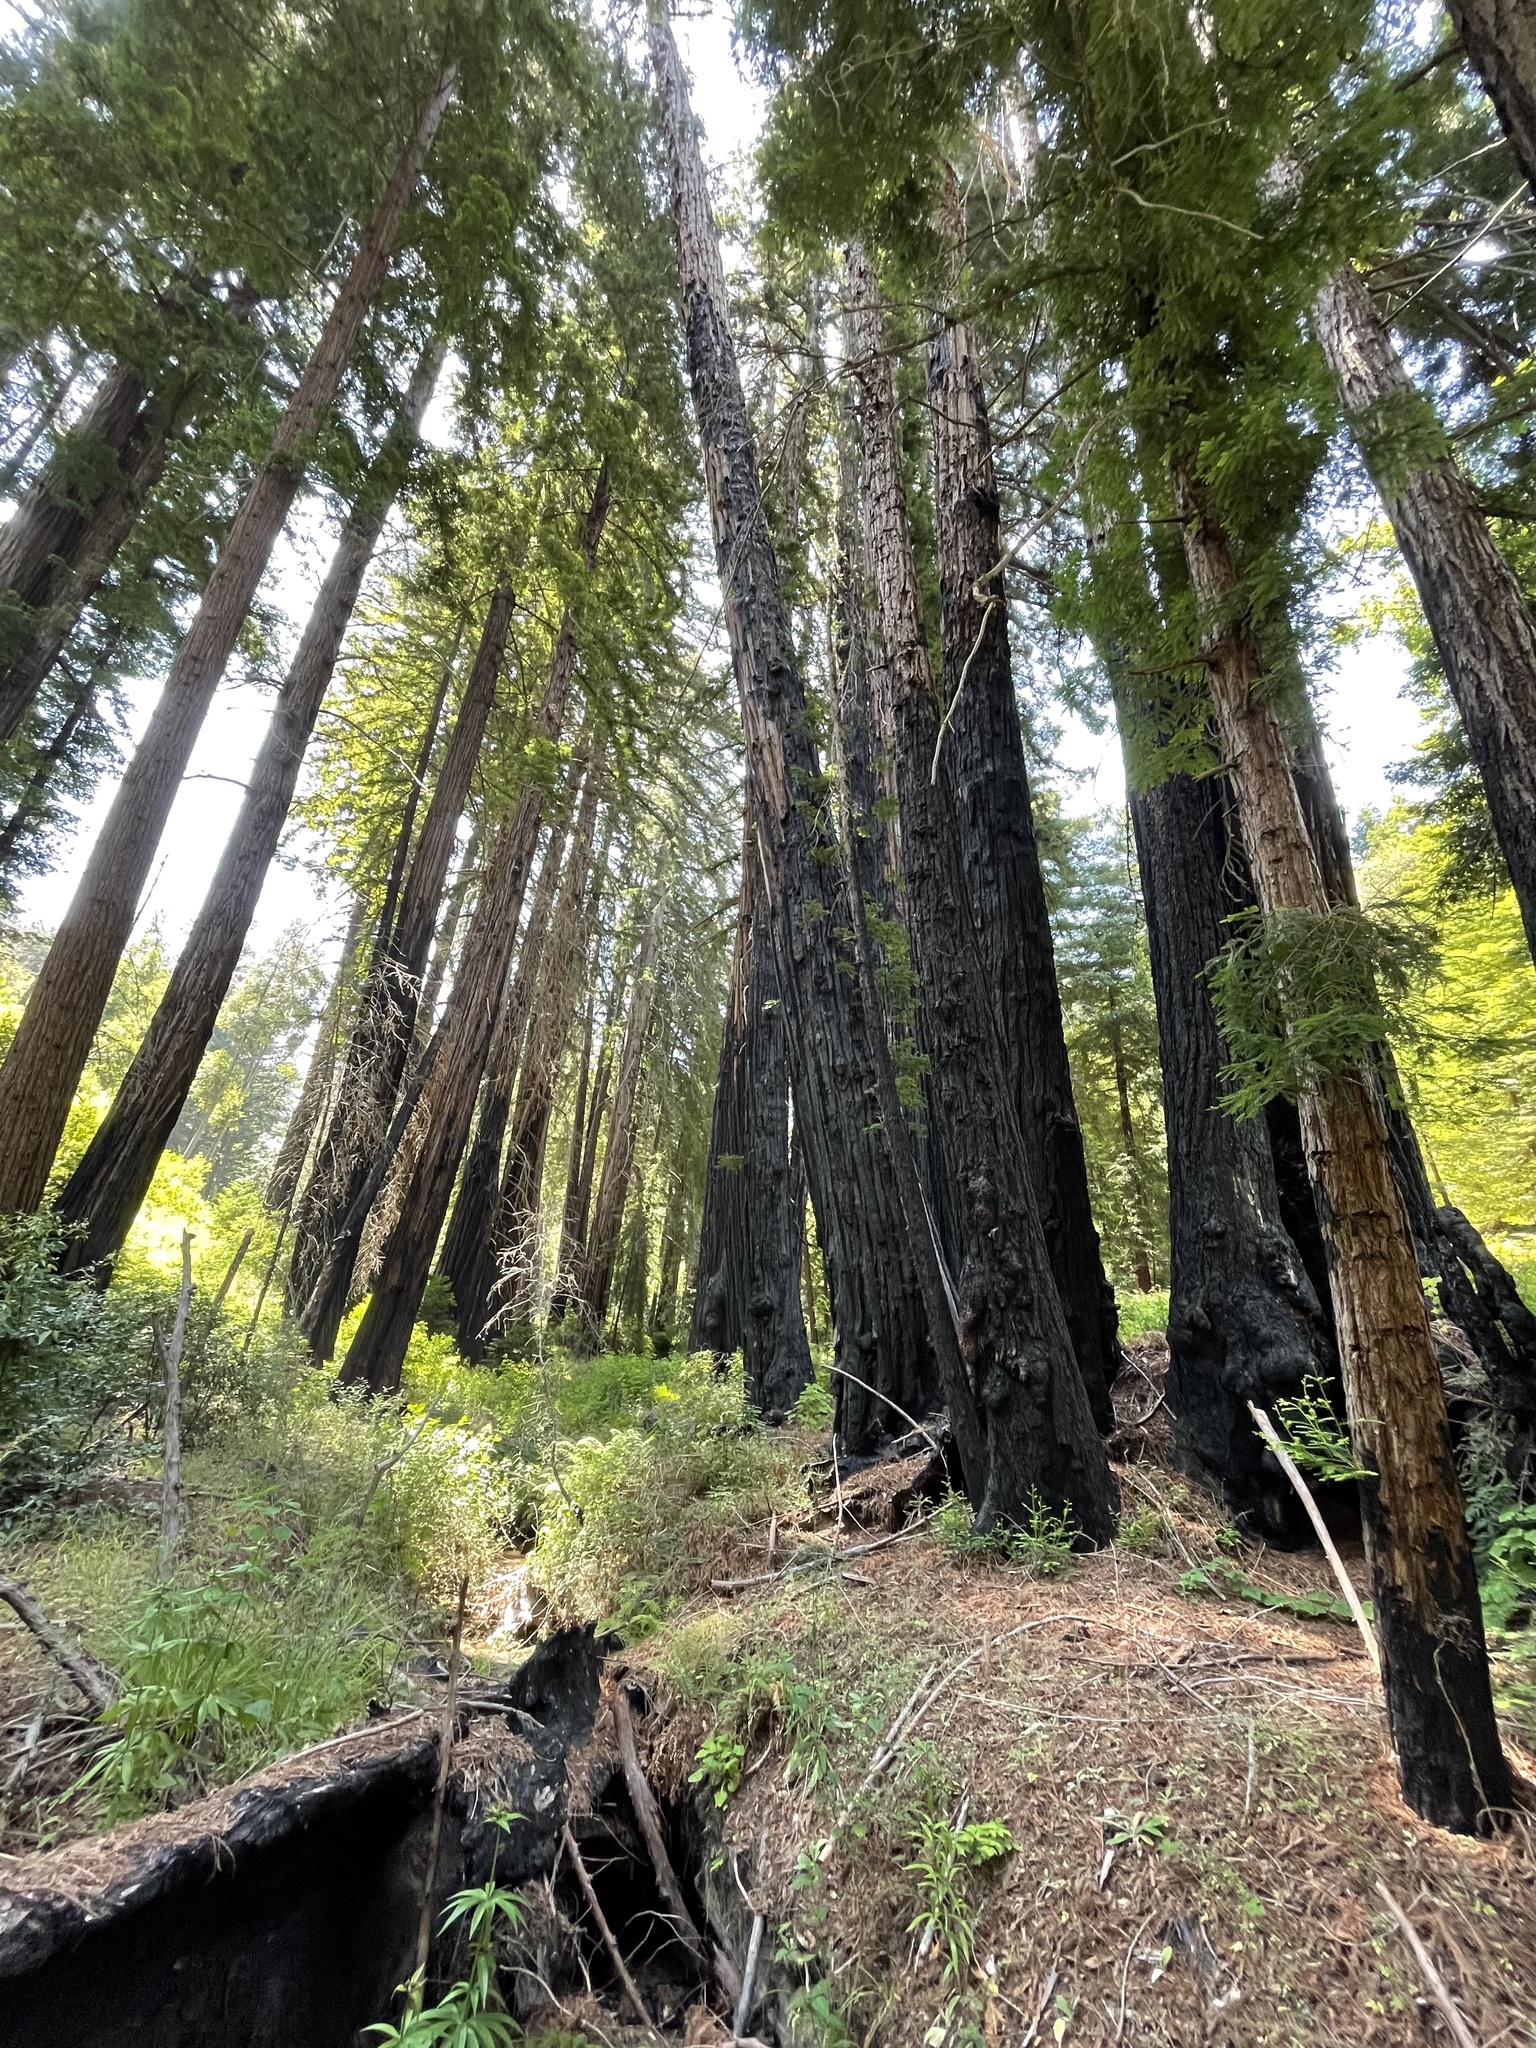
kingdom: Plantae
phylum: Tracheophyta
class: Liliopsida
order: Liliales
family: Liliaceae
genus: Lilium
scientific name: Lilium pardalinum
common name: Panther lily
